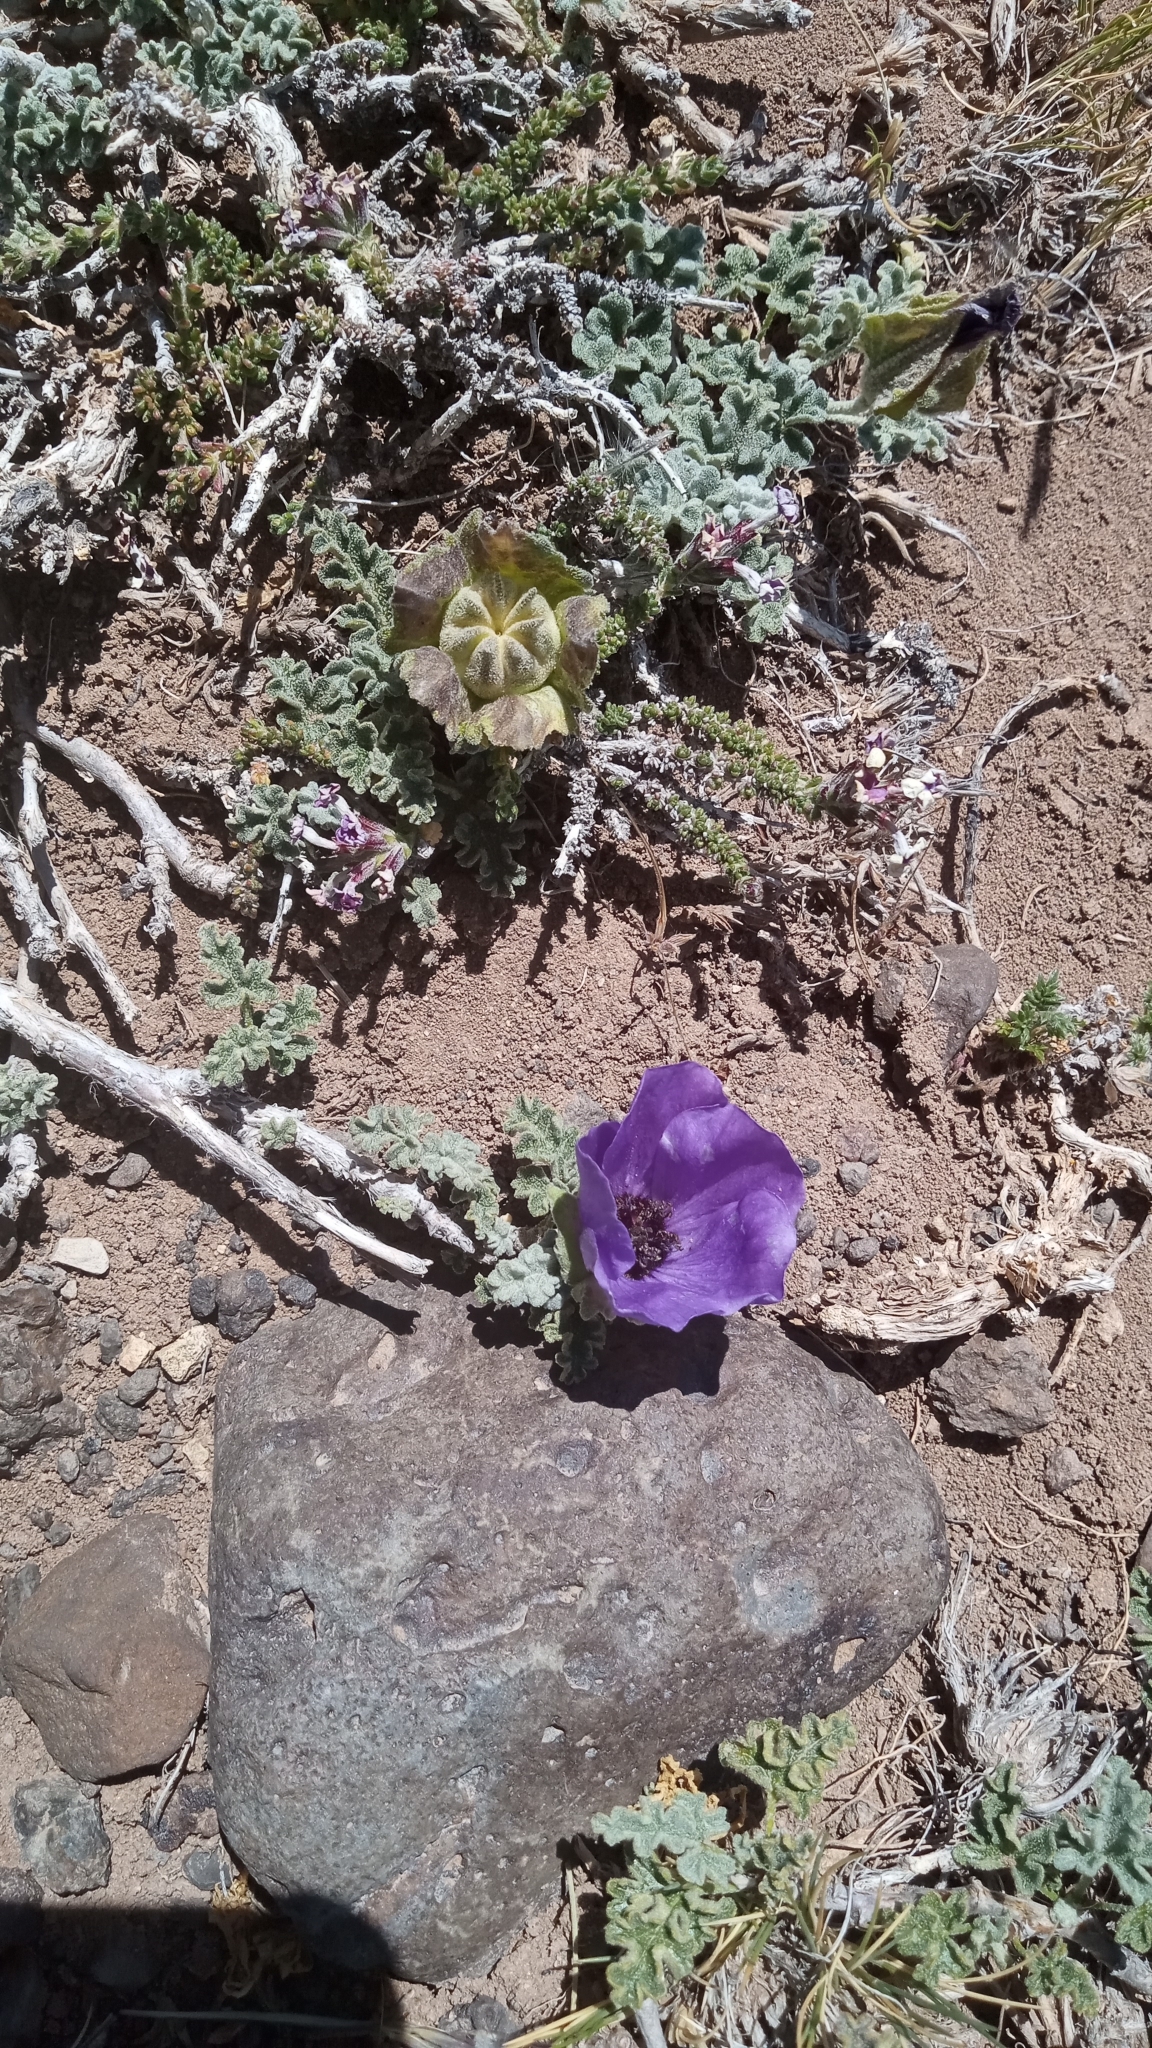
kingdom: Plantae
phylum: Tracheophyta
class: Magnoliopsida
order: Malvales
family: Malvaceae
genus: Neobaclea
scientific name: Neobaclea crispifolia
